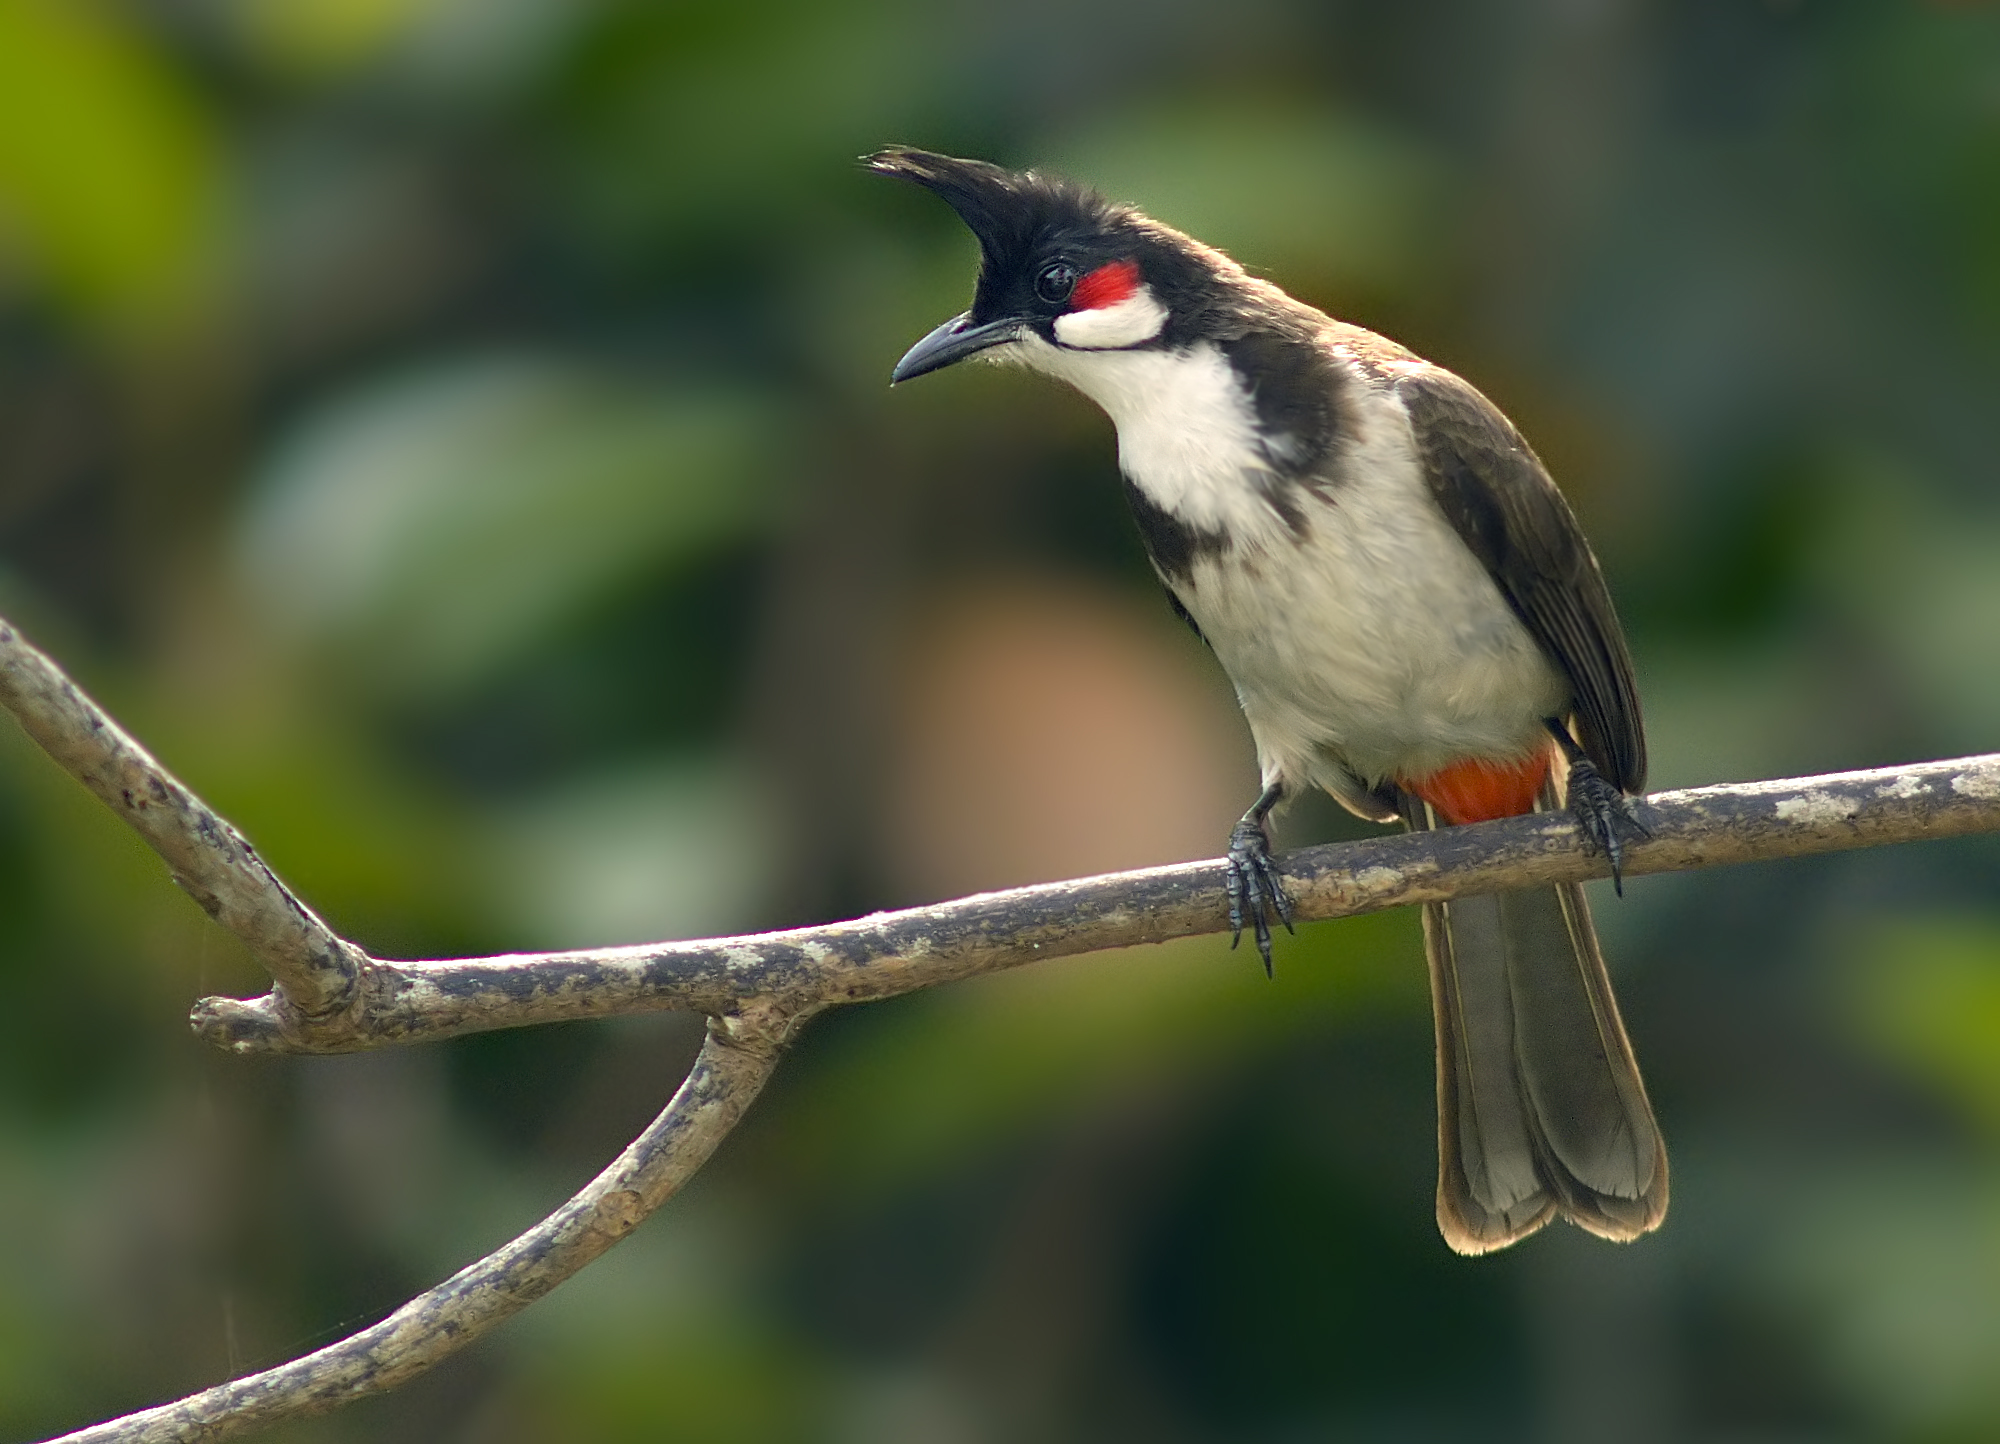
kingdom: Animalia
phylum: Chordata
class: Aves
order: Passeriformes
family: Pycnonotidae
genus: Pycnonotus
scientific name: Pycnonotus jocosus
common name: Red-whiskered bulbul
